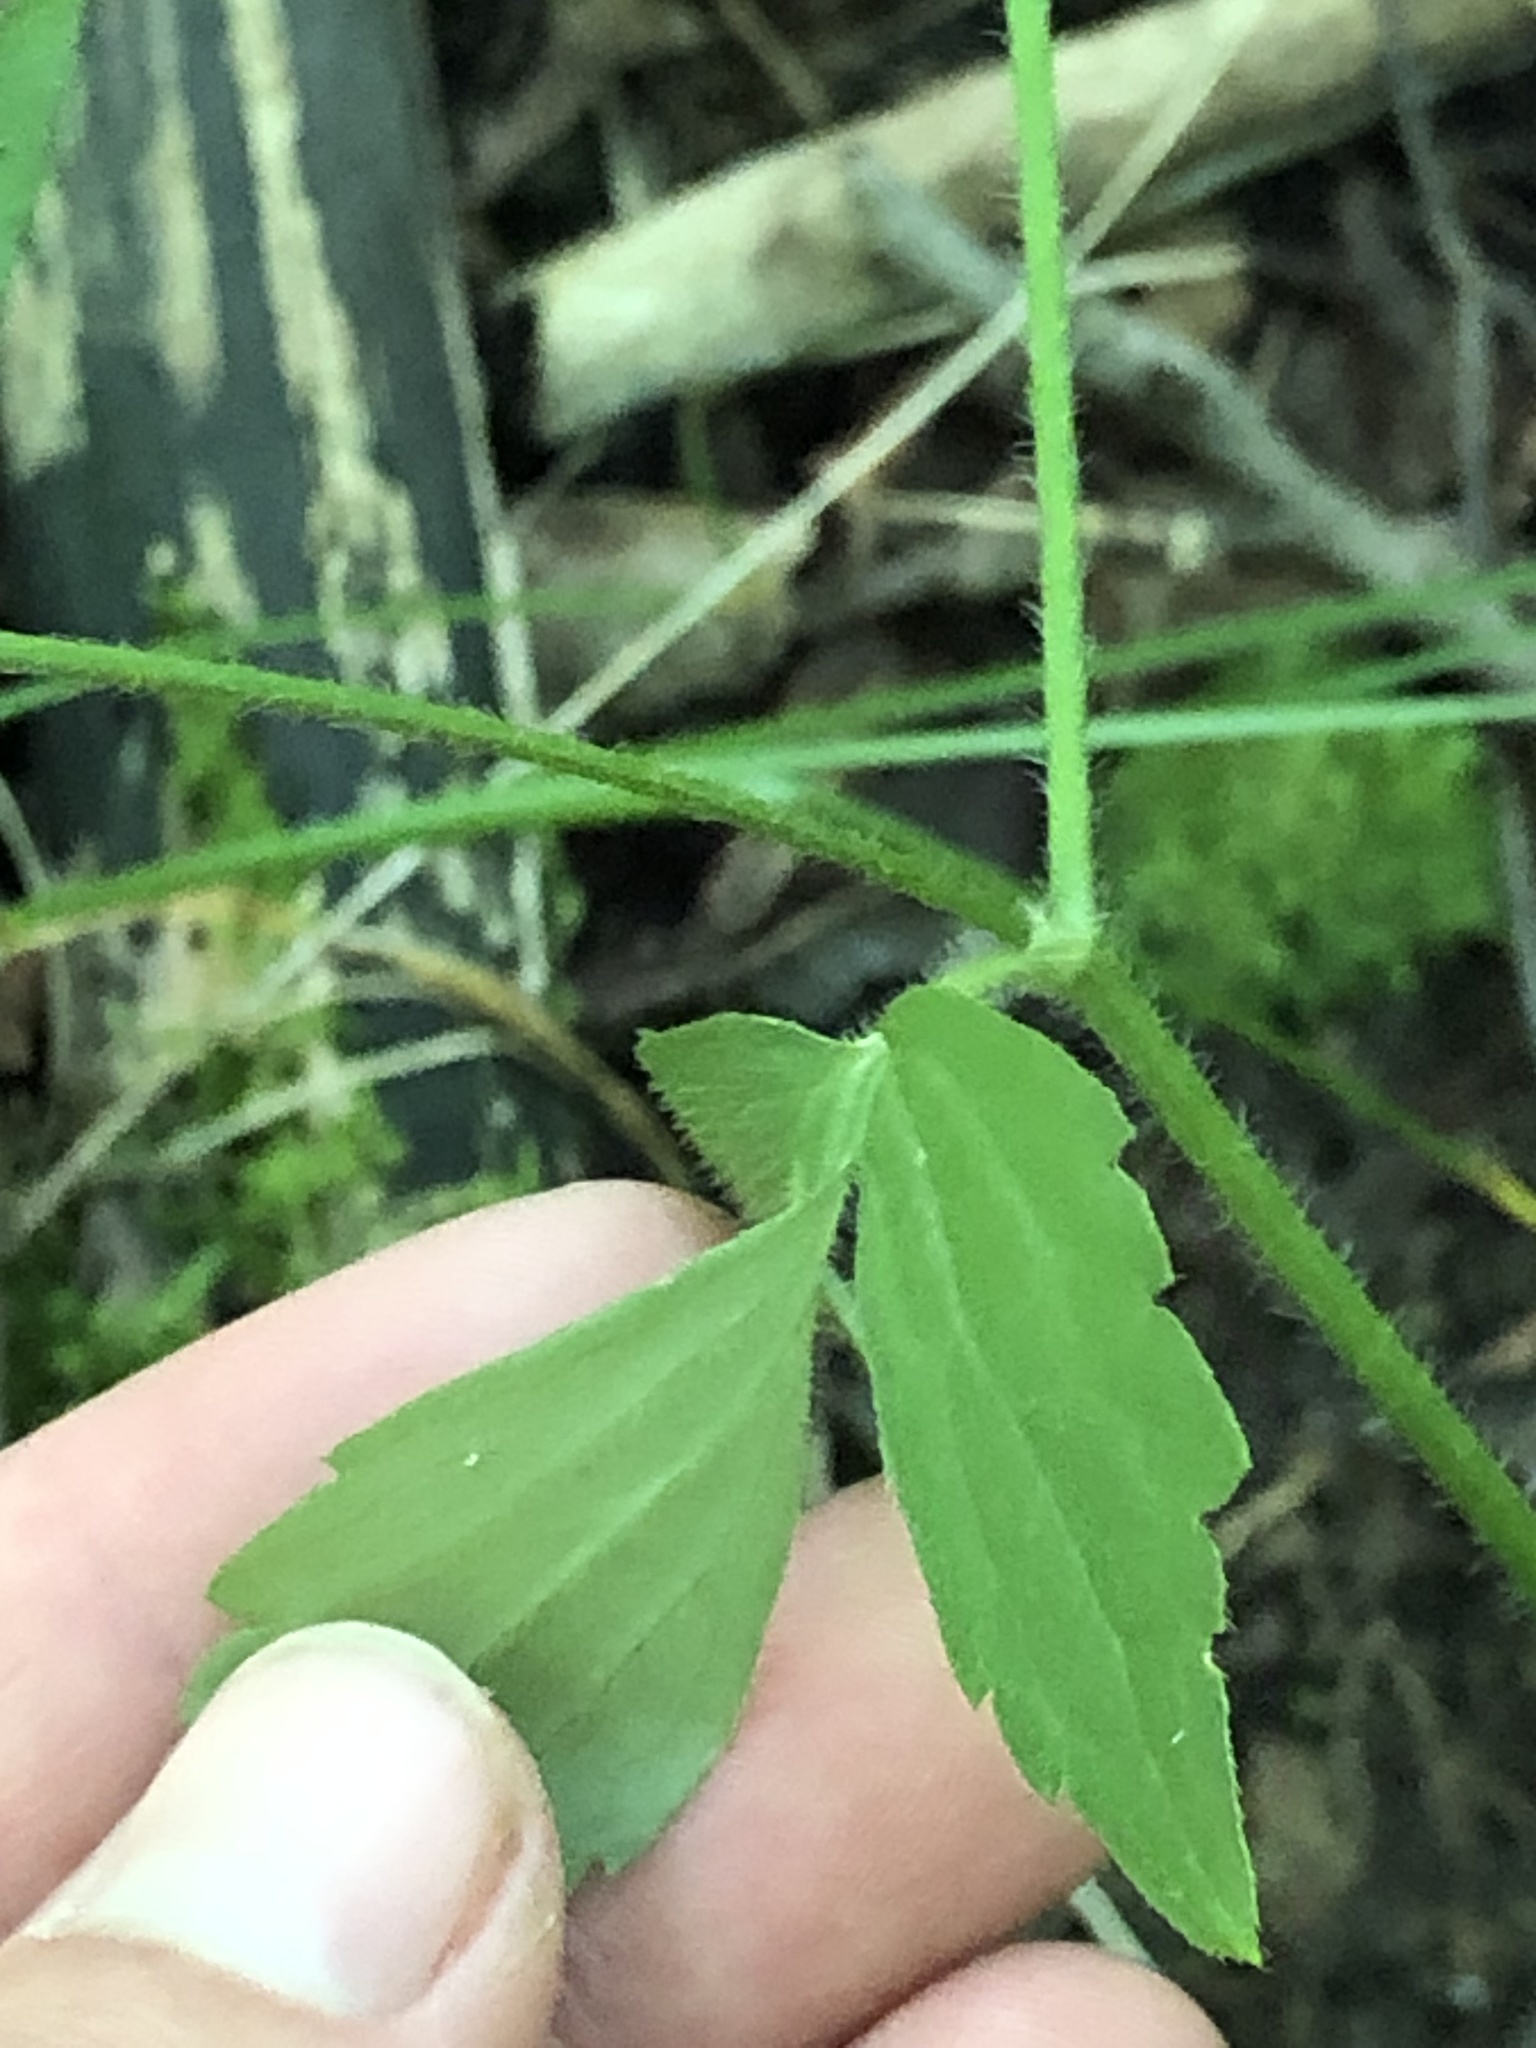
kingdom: Plantae
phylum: Tracheophyta
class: Magnoliopsida
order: Ranunculales
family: Ranunculaceae
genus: Ranunculus
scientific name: Ranunculus recurvatus
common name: Blisterwort
